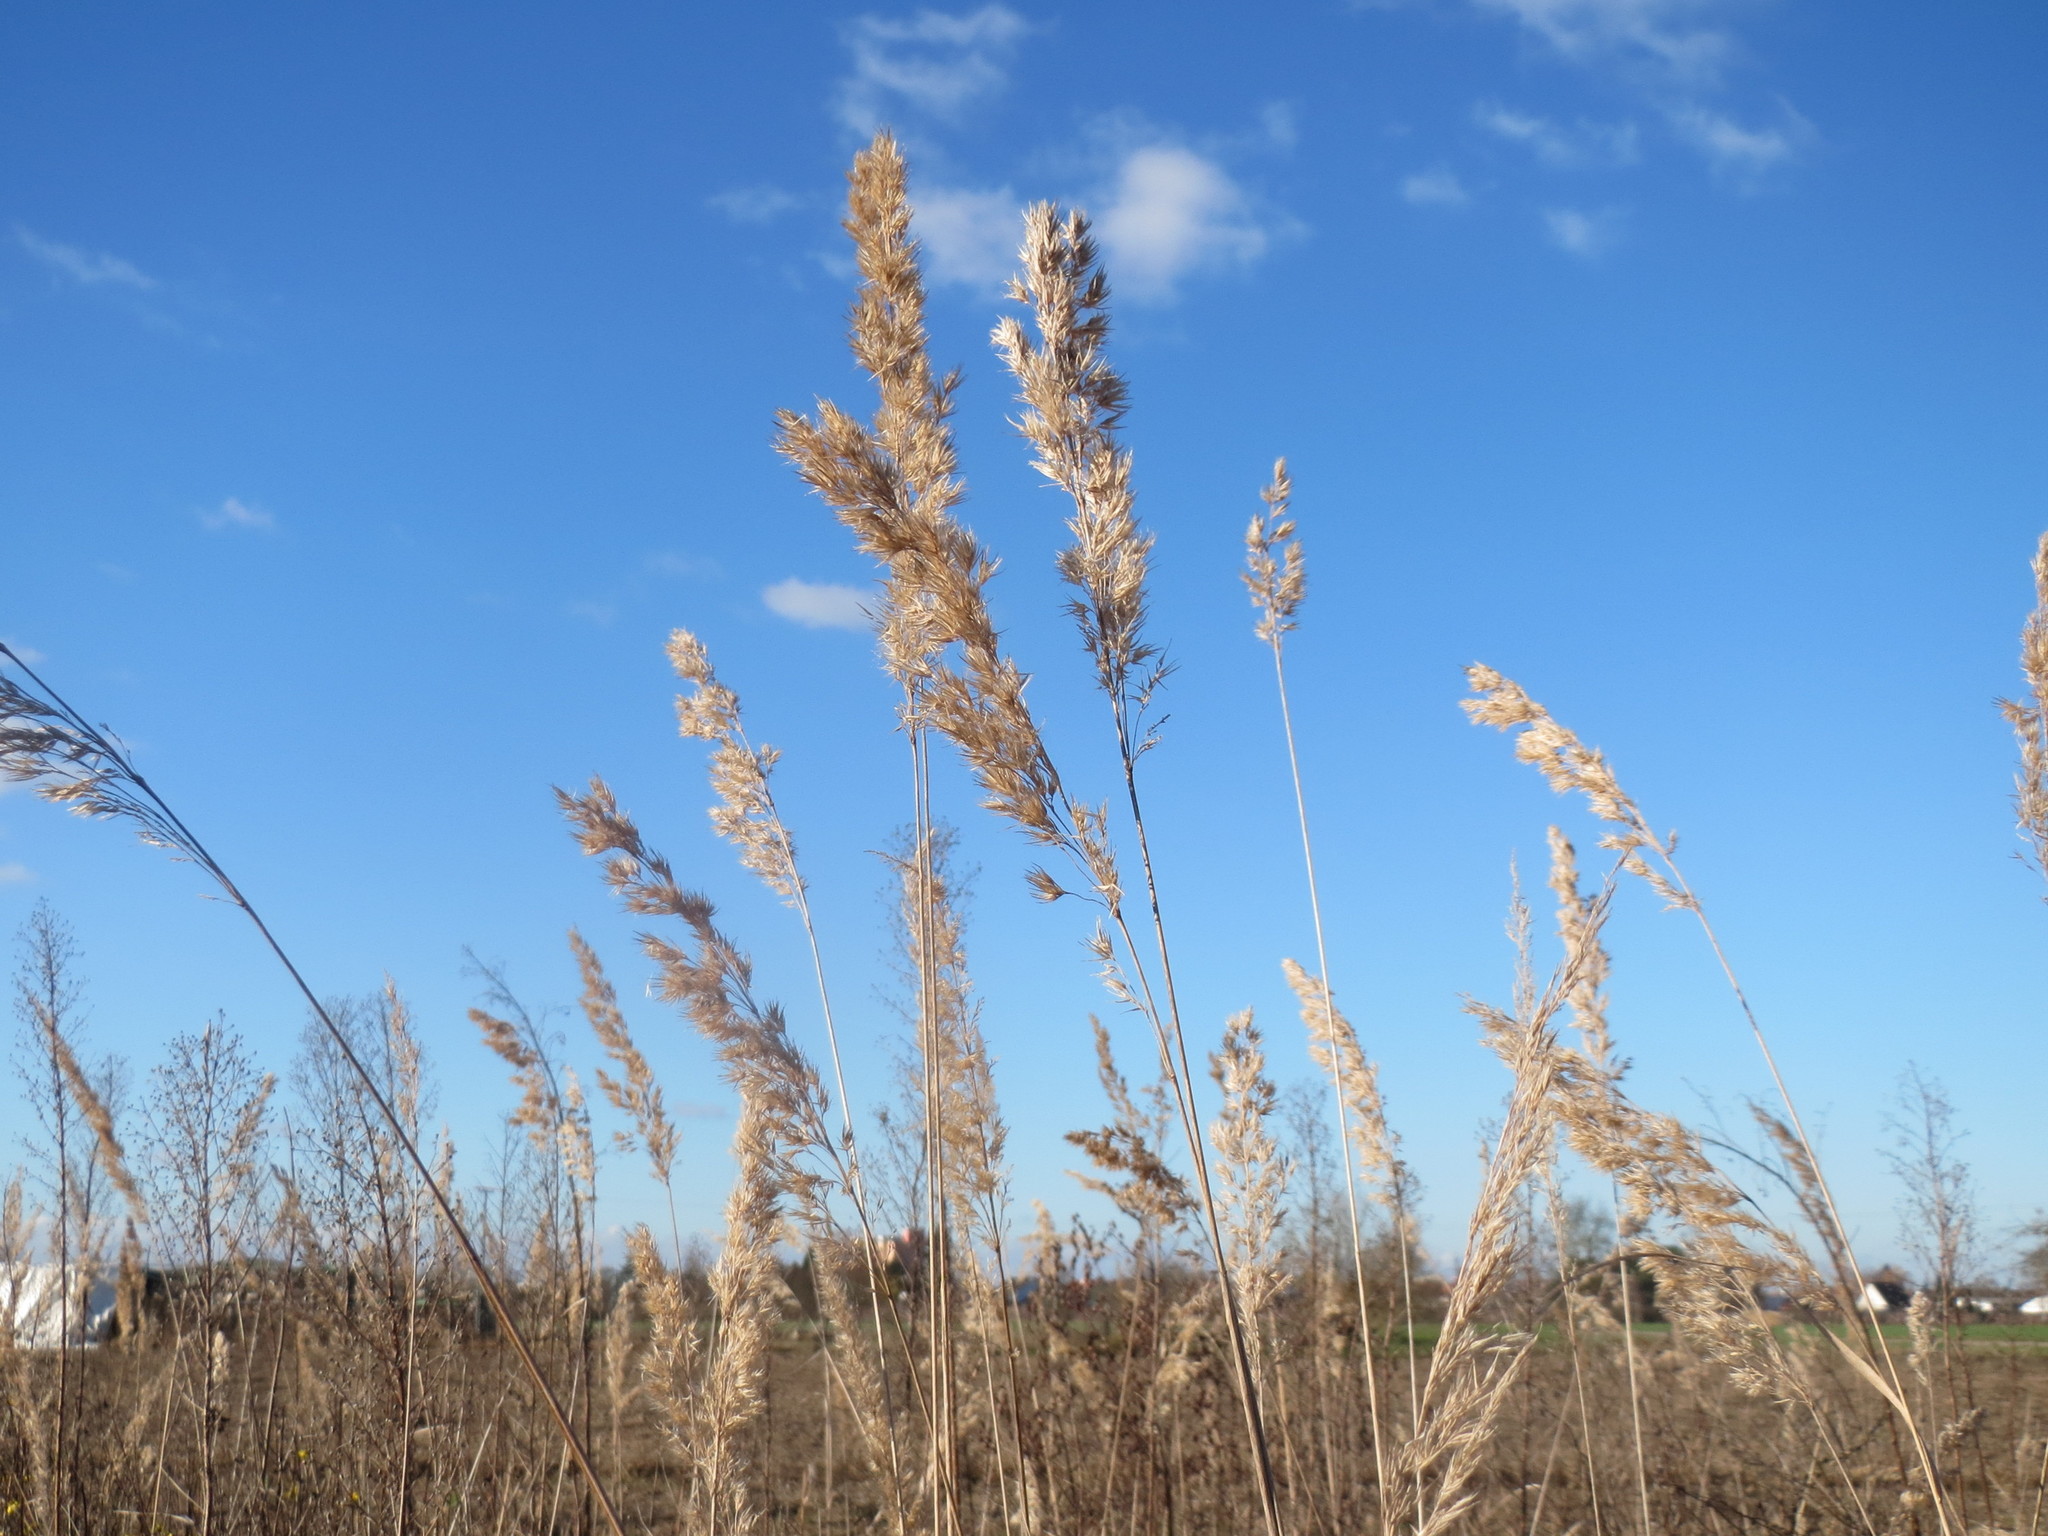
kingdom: Plantae
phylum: Tracheophyta
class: Liliopsida
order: Poales
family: Poaceae
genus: Calamagrostis
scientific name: Calamagrostis epigejos
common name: Wood small-reed
